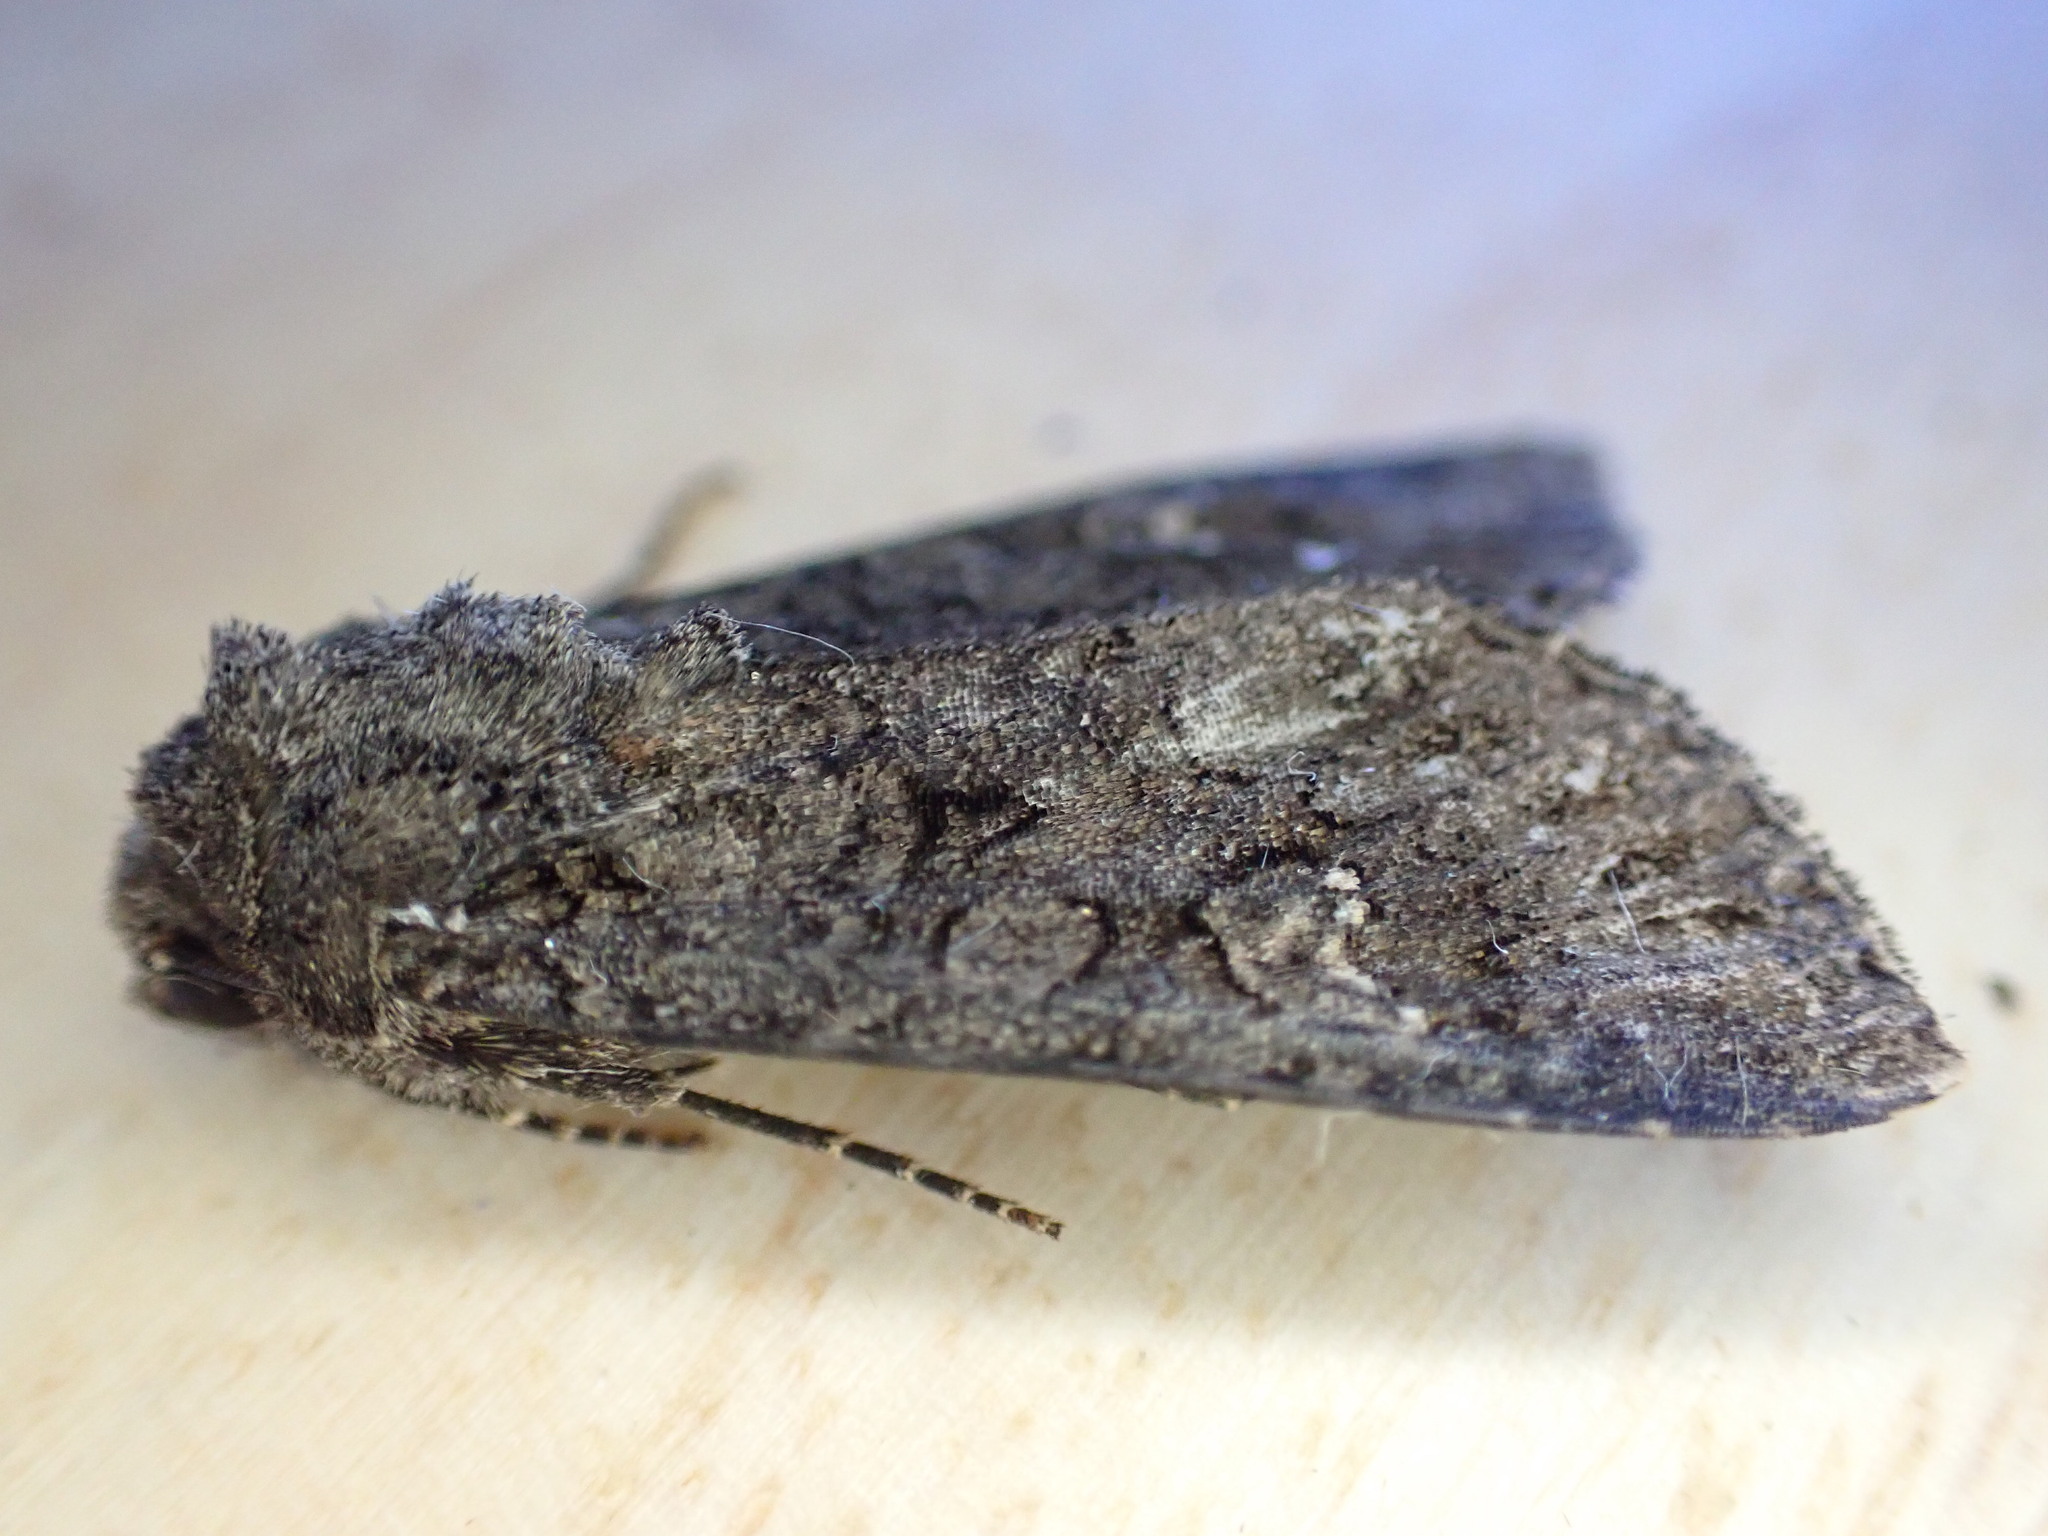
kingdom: Animalia
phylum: Arthropoda
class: Insecta
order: Lepidoptera
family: Noctuidae
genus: Mamestra
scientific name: Mamestra brassicae
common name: Cabbage moth
